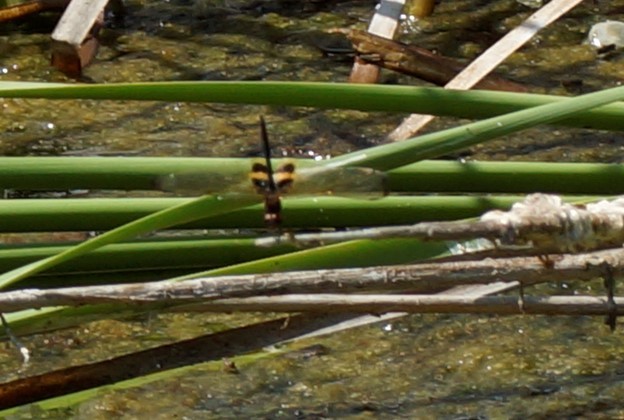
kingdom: Animalia
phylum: Arthropoda
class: Insecta
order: Odonata
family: Libellulidae
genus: Rhyothemis
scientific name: Rhyothemis phyllis
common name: Yellow-barred flutterer
